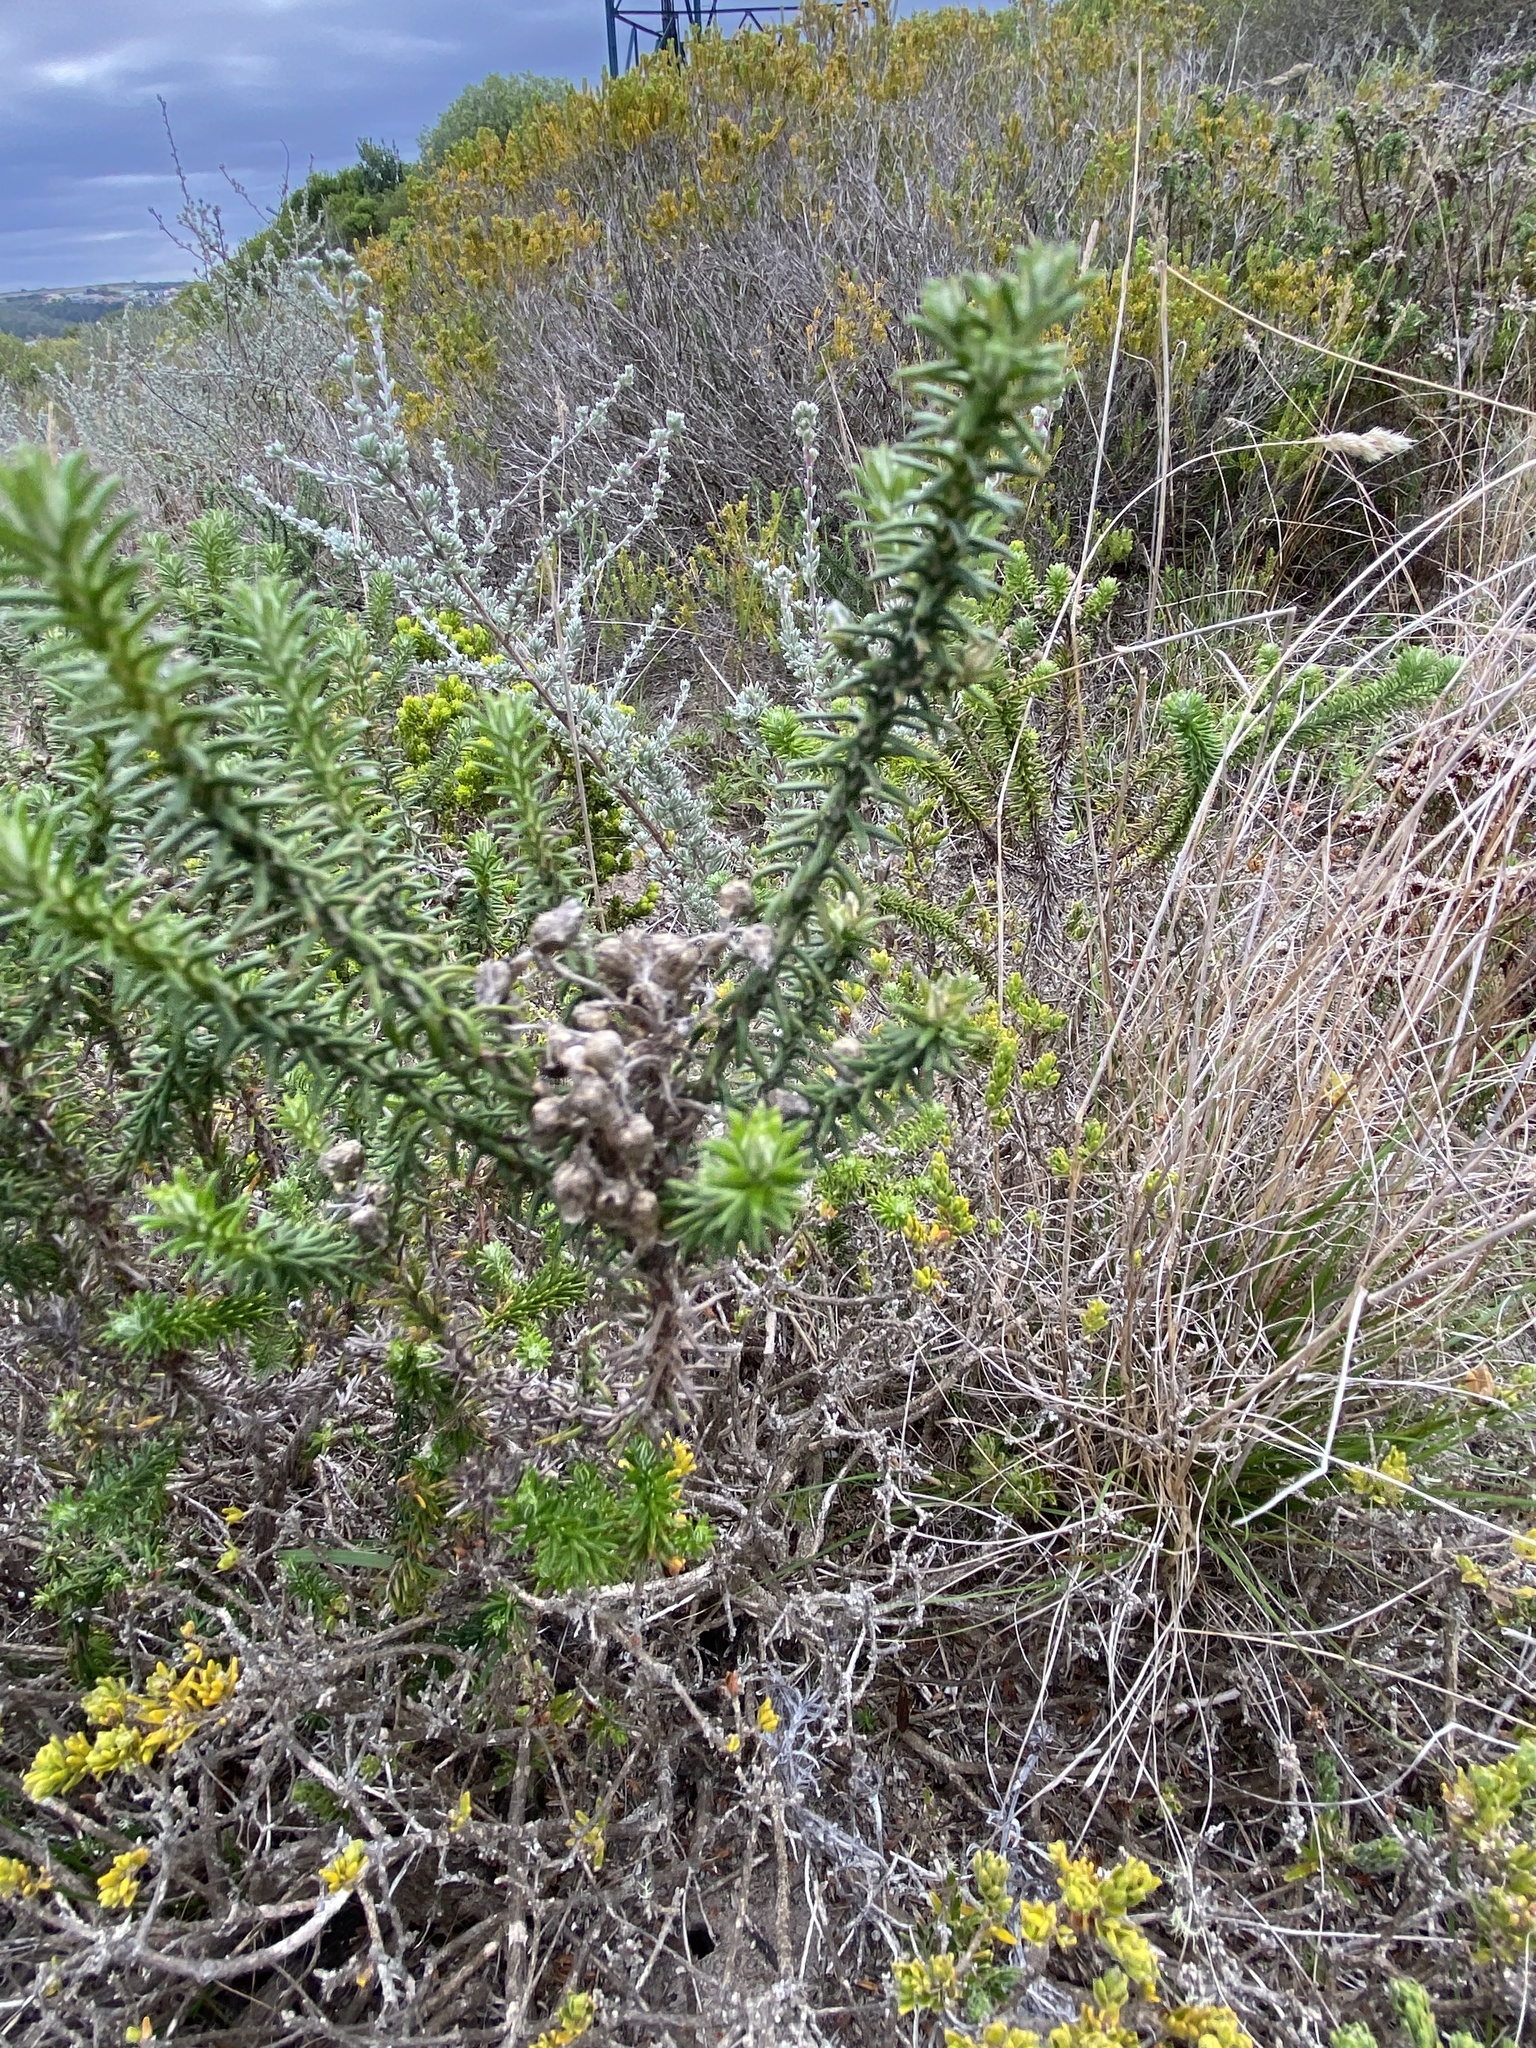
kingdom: Plantae
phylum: Tracheophyta
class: Magnoliopsida
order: Asterales
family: Asteraceae
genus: Helichrysum
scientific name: Helichrysum teretifolium
